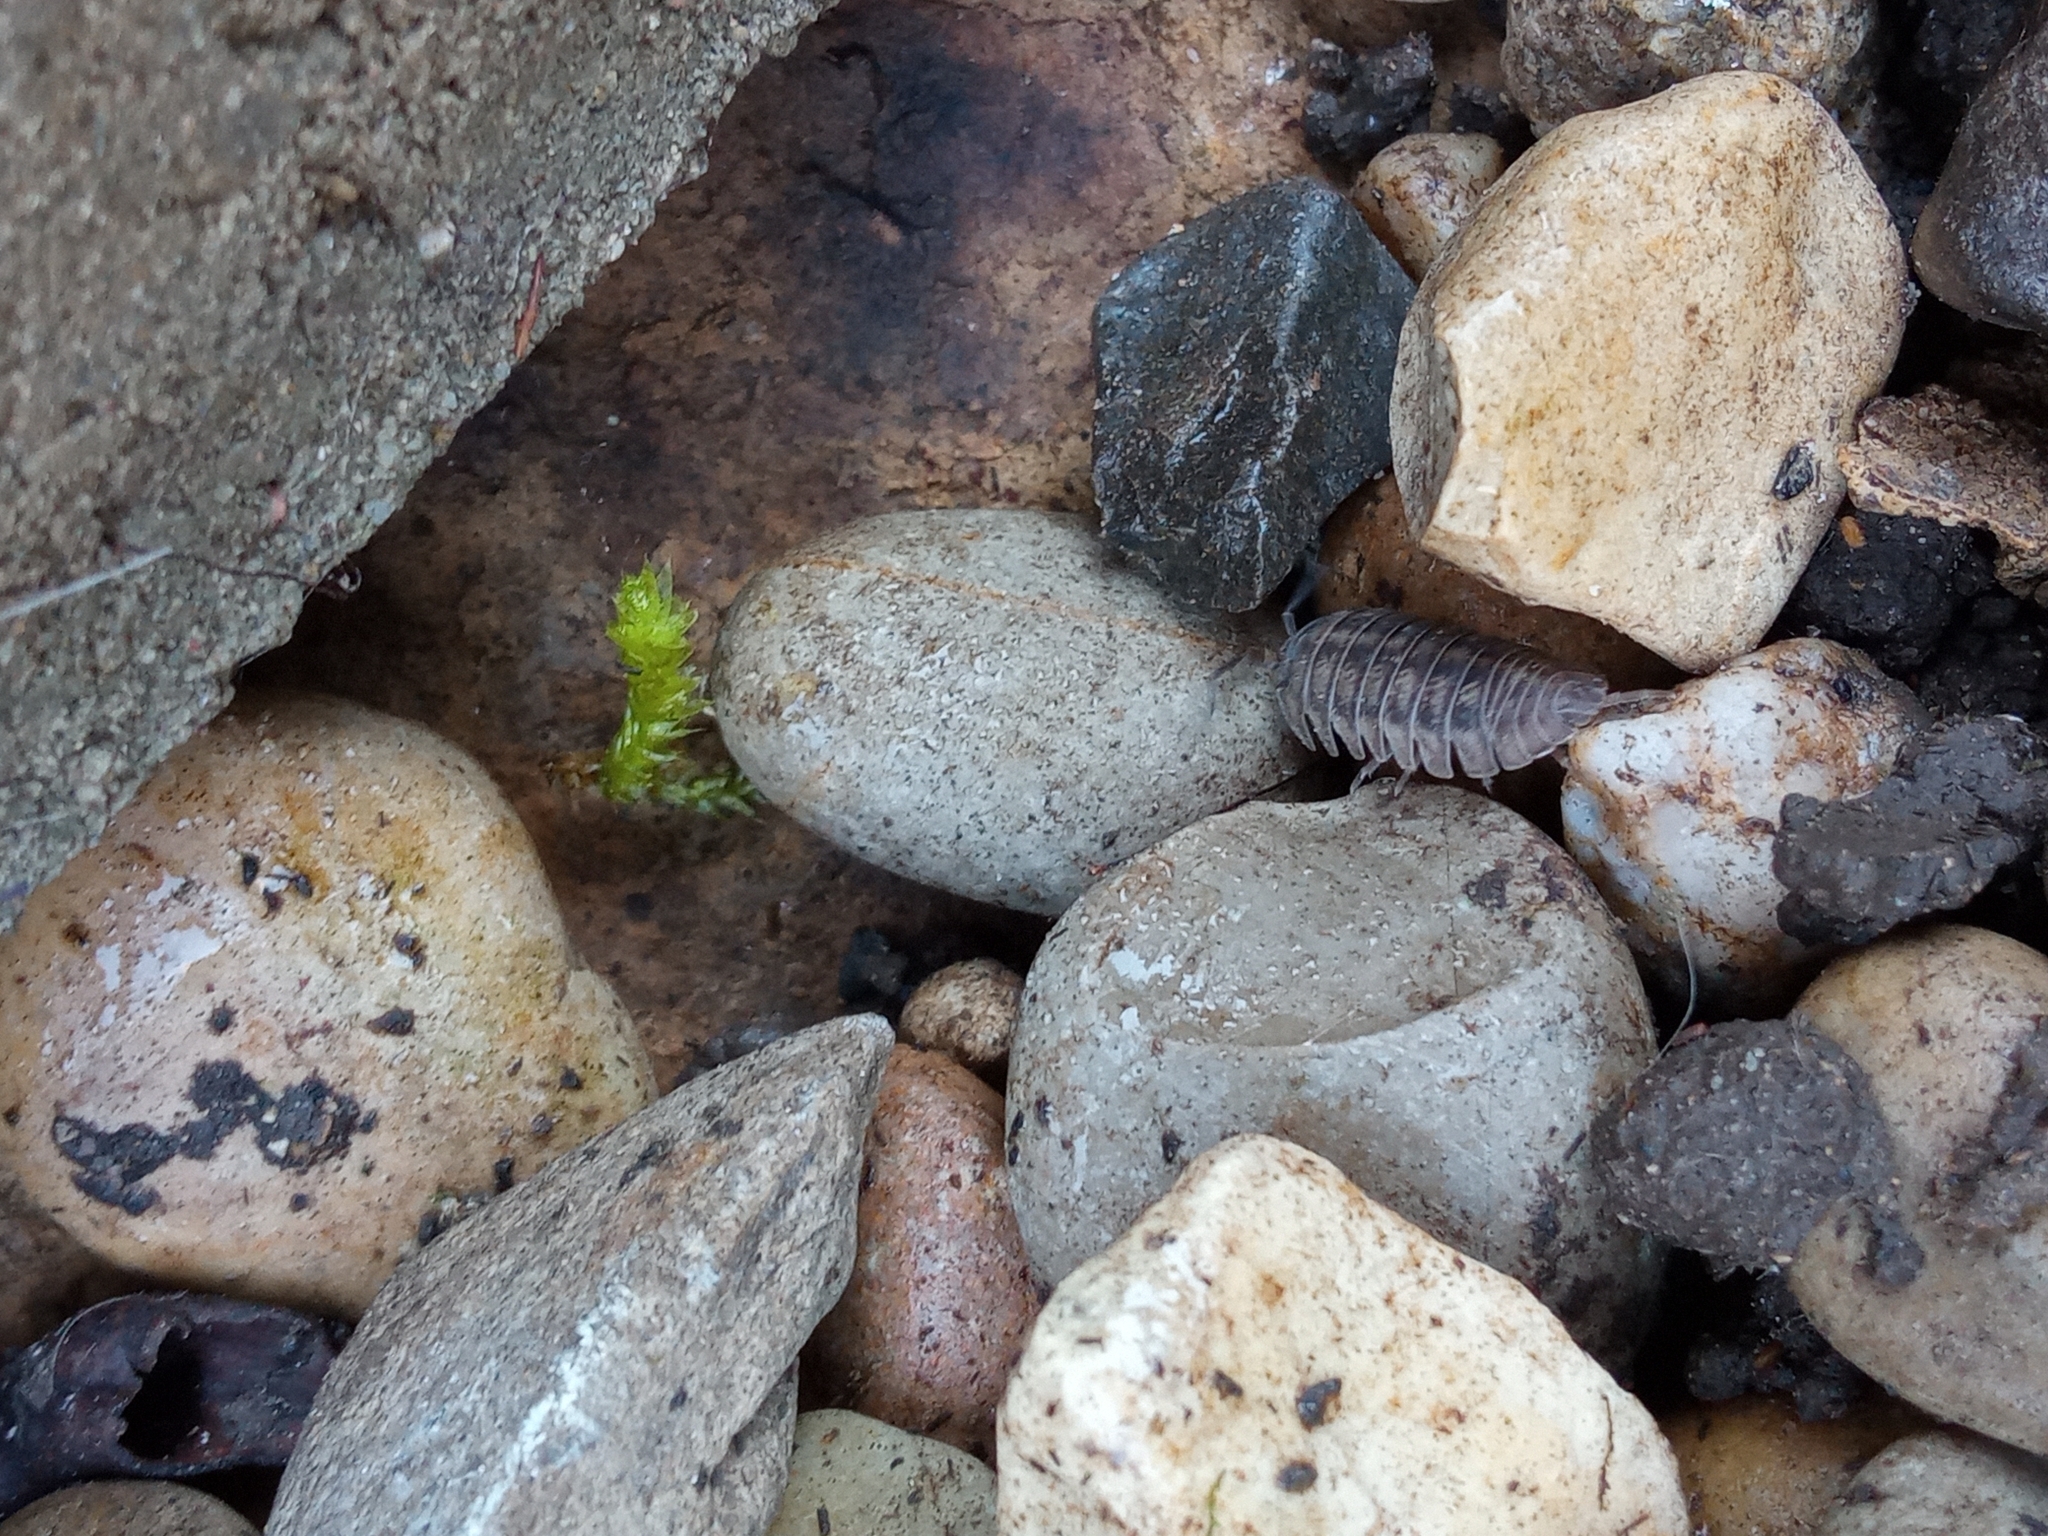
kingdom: Animalia
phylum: Arthropoda
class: Malacostraca
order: Isopoda
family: Armadillidiidae
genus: Armadillidium
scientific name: Armadillidium nasatum
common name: Isopod
